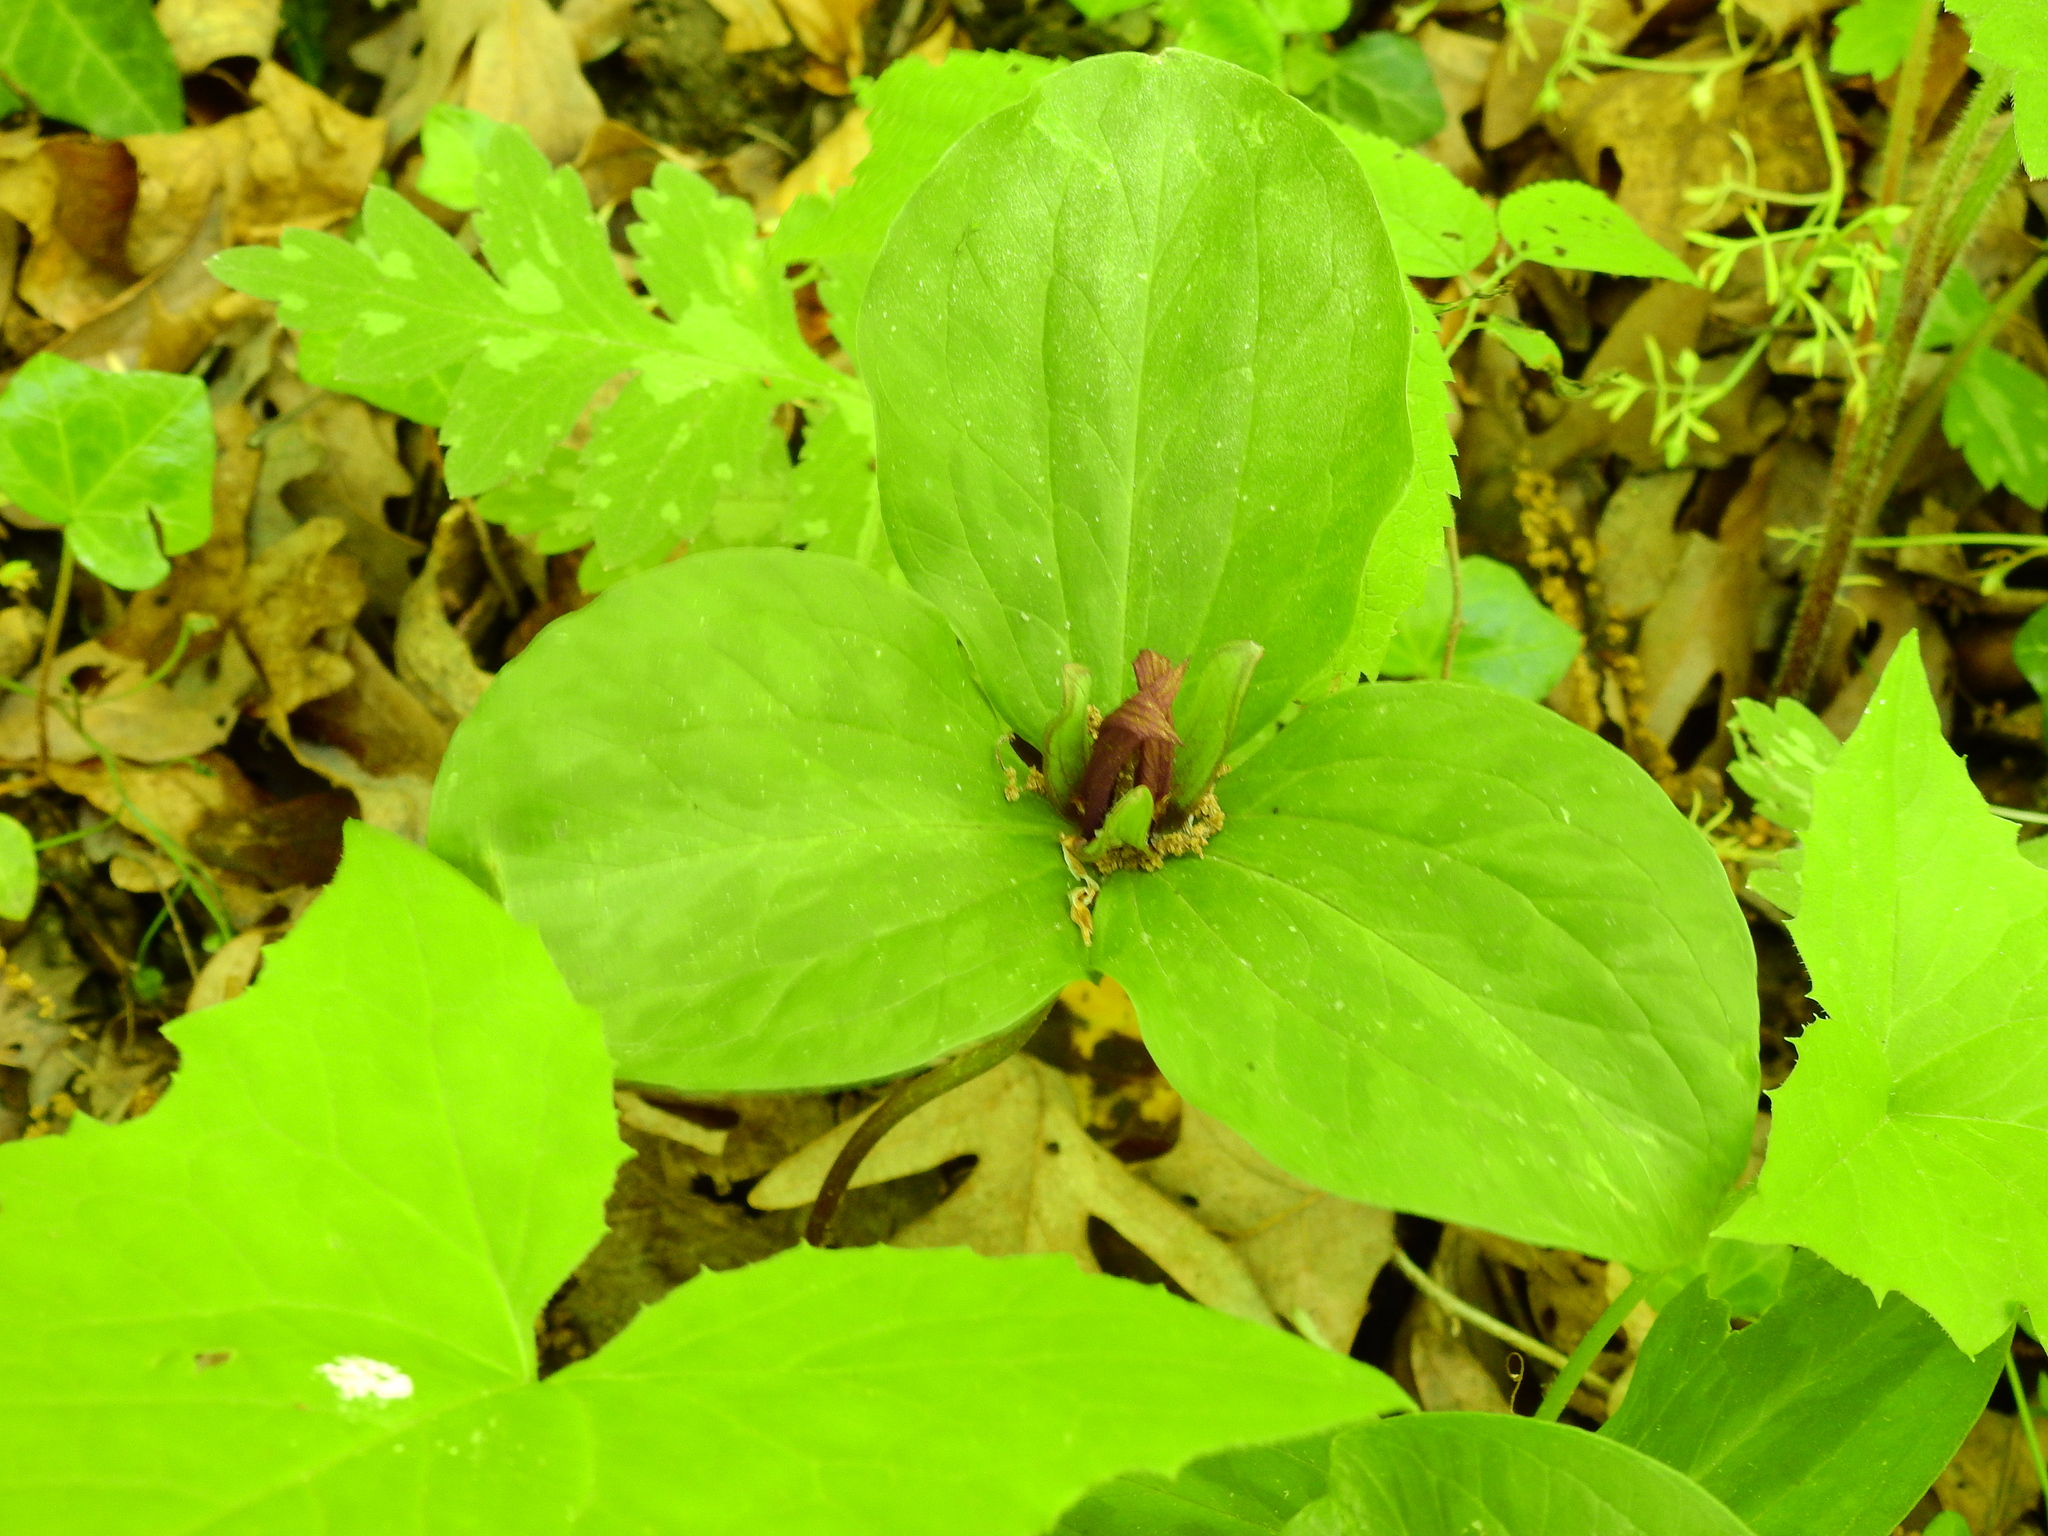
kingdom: Plantae
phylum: Tracheophyta
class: Liliopsida
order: Liliales
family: Melanthiaceae
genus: Trillium
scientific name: Trillium sessile
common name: Sessile trillium
